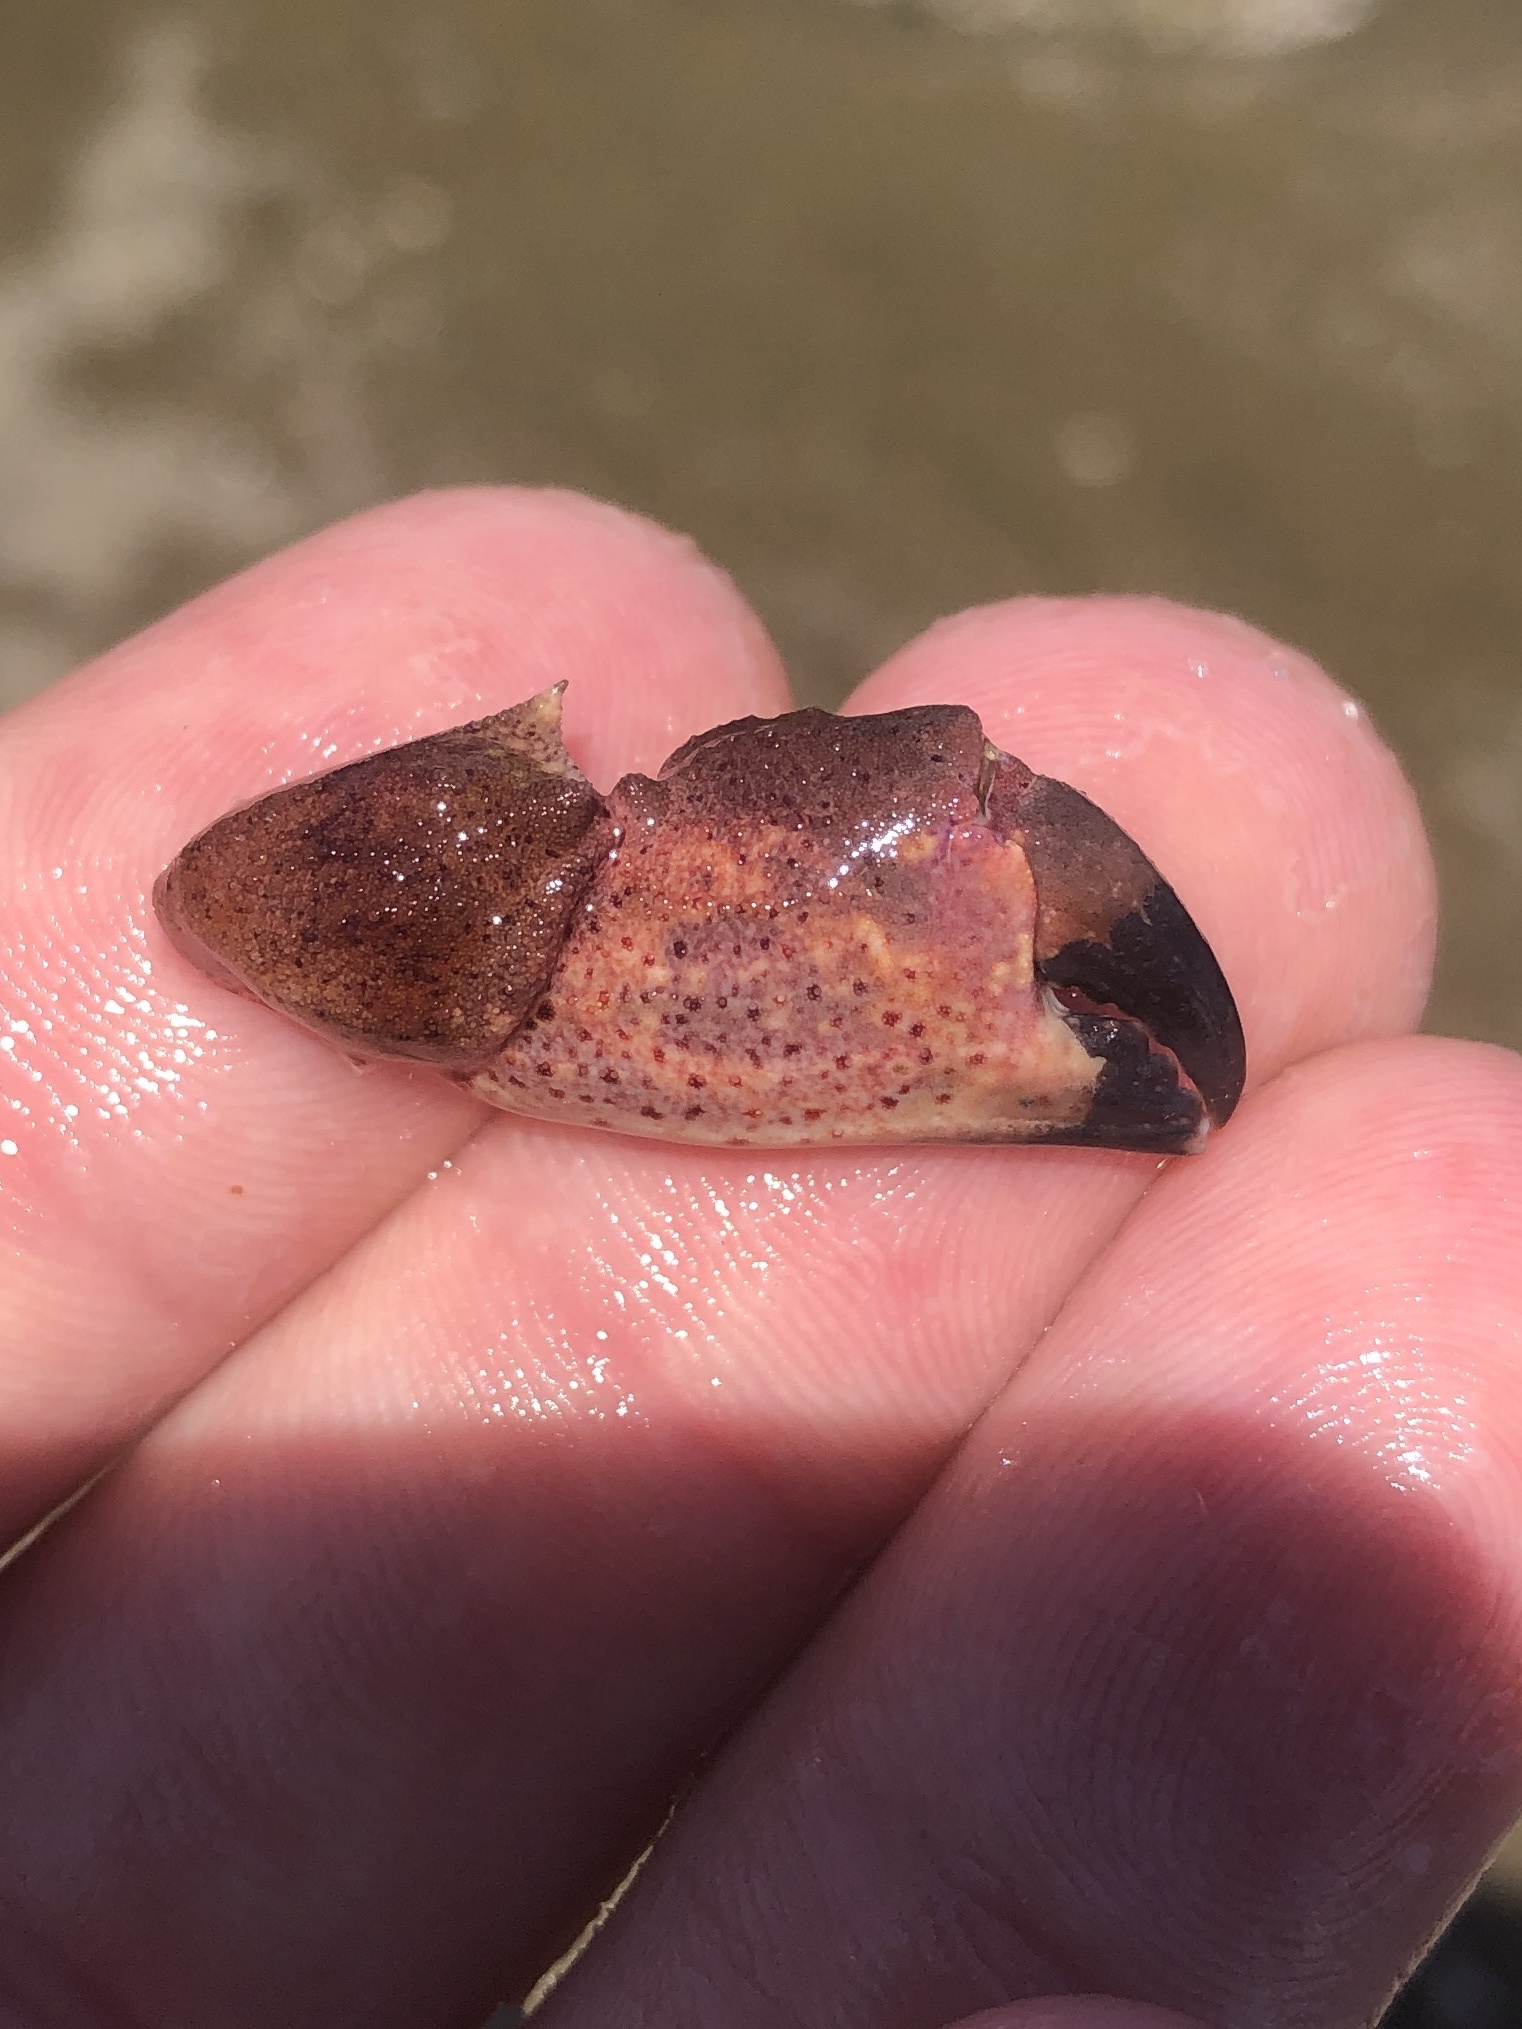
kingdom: Animalia
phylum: Arthropoda
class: Malacostraca
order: Decapoda
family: Cancridae
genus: Romaleon
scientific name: Romaleon antennarium
